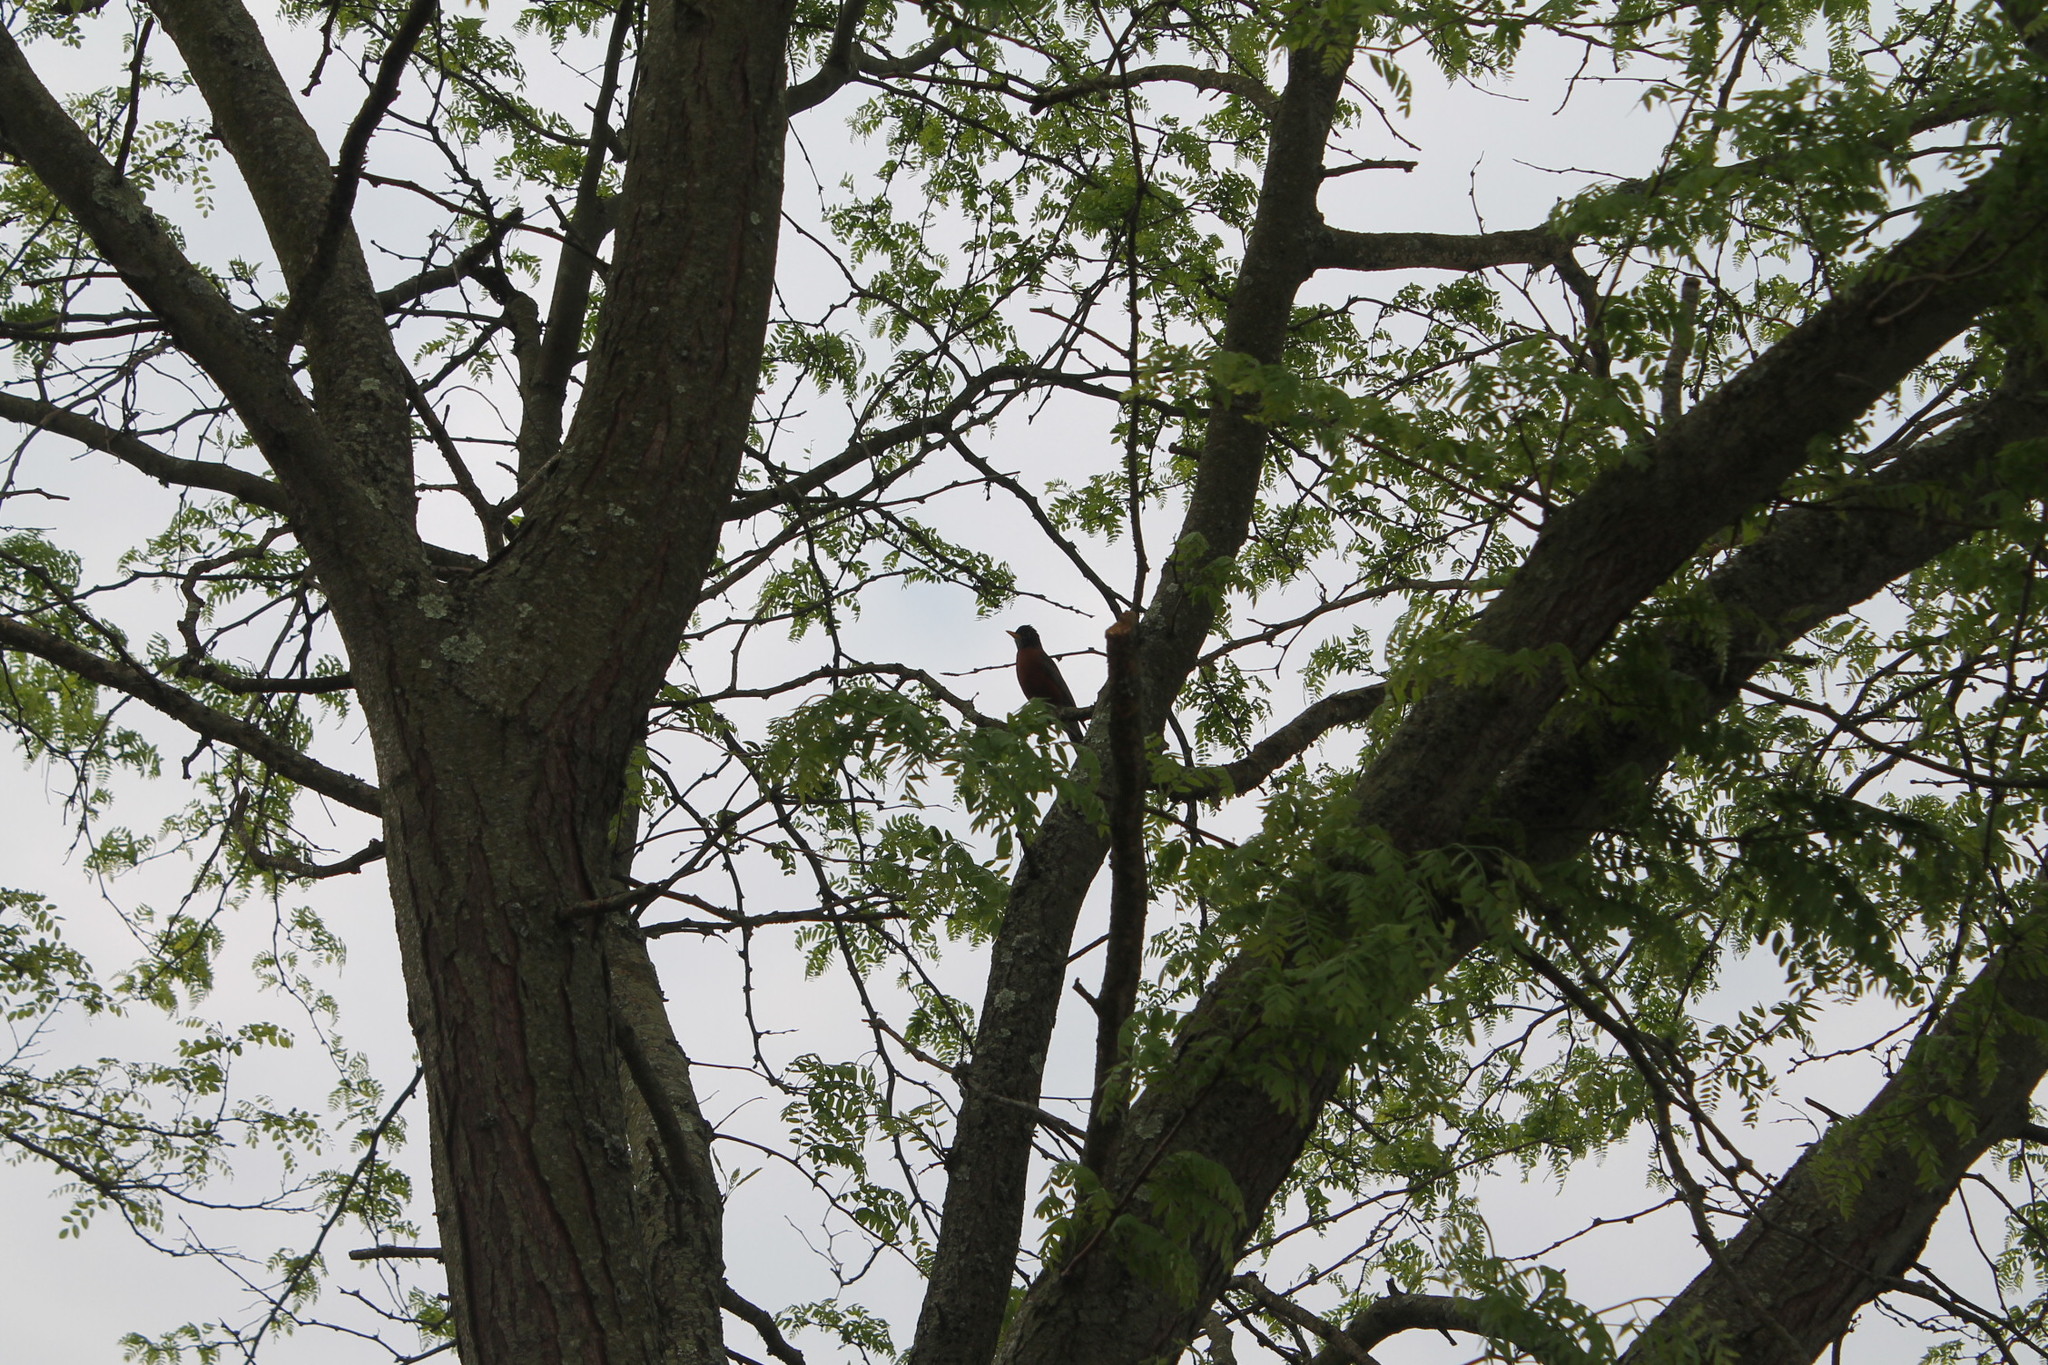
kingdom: Animalia
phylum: Chordata
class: Aves
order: Passeriformes
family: Turdidae
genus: Turdus
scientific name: Turdus migratorius
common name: American robin
